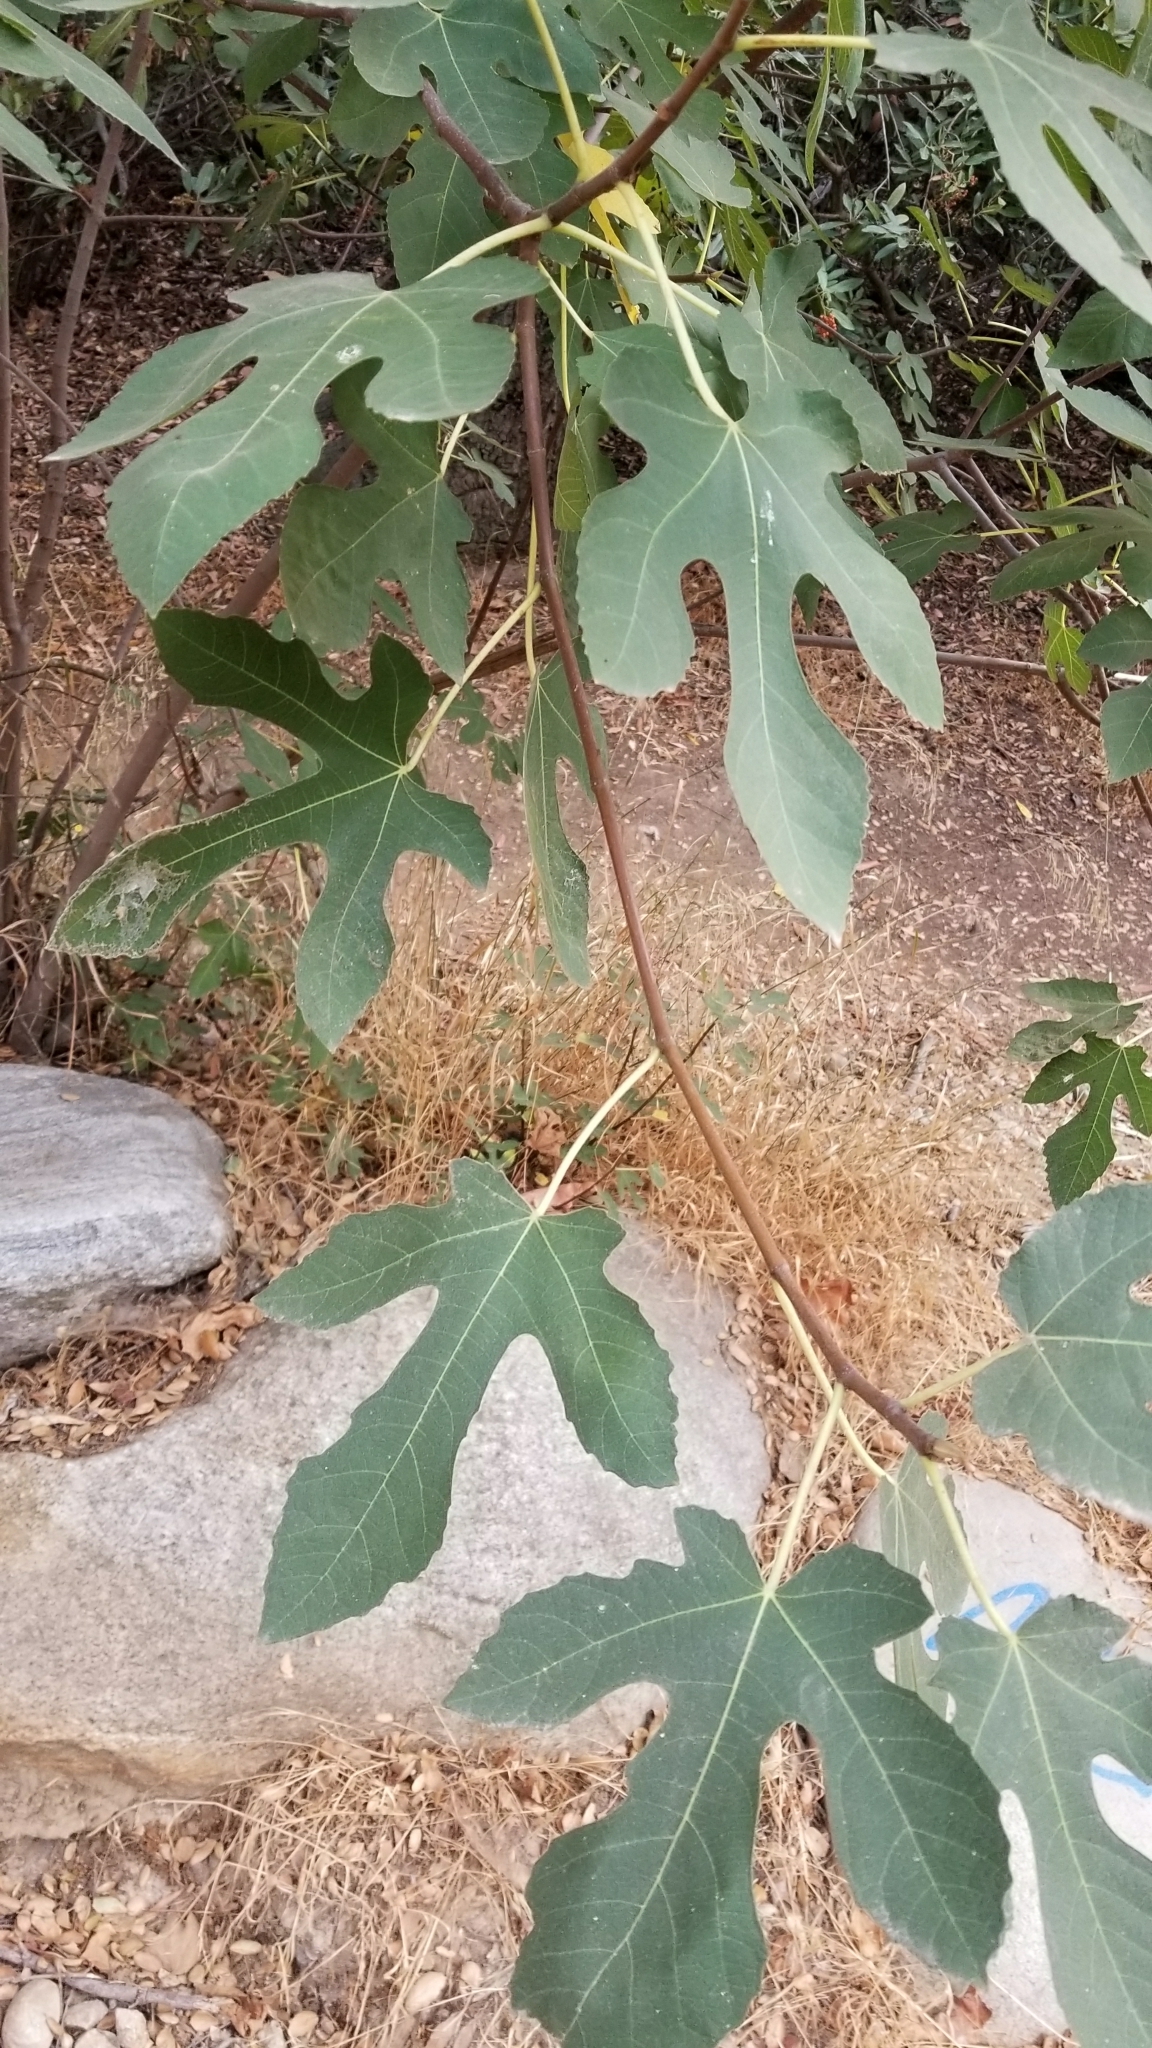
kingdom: Plantae
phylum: Tracheophyta
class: Magnoliopsida
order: Rosales
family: Moraceae
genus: Ficus
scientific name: Ficus carica
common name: Fig
